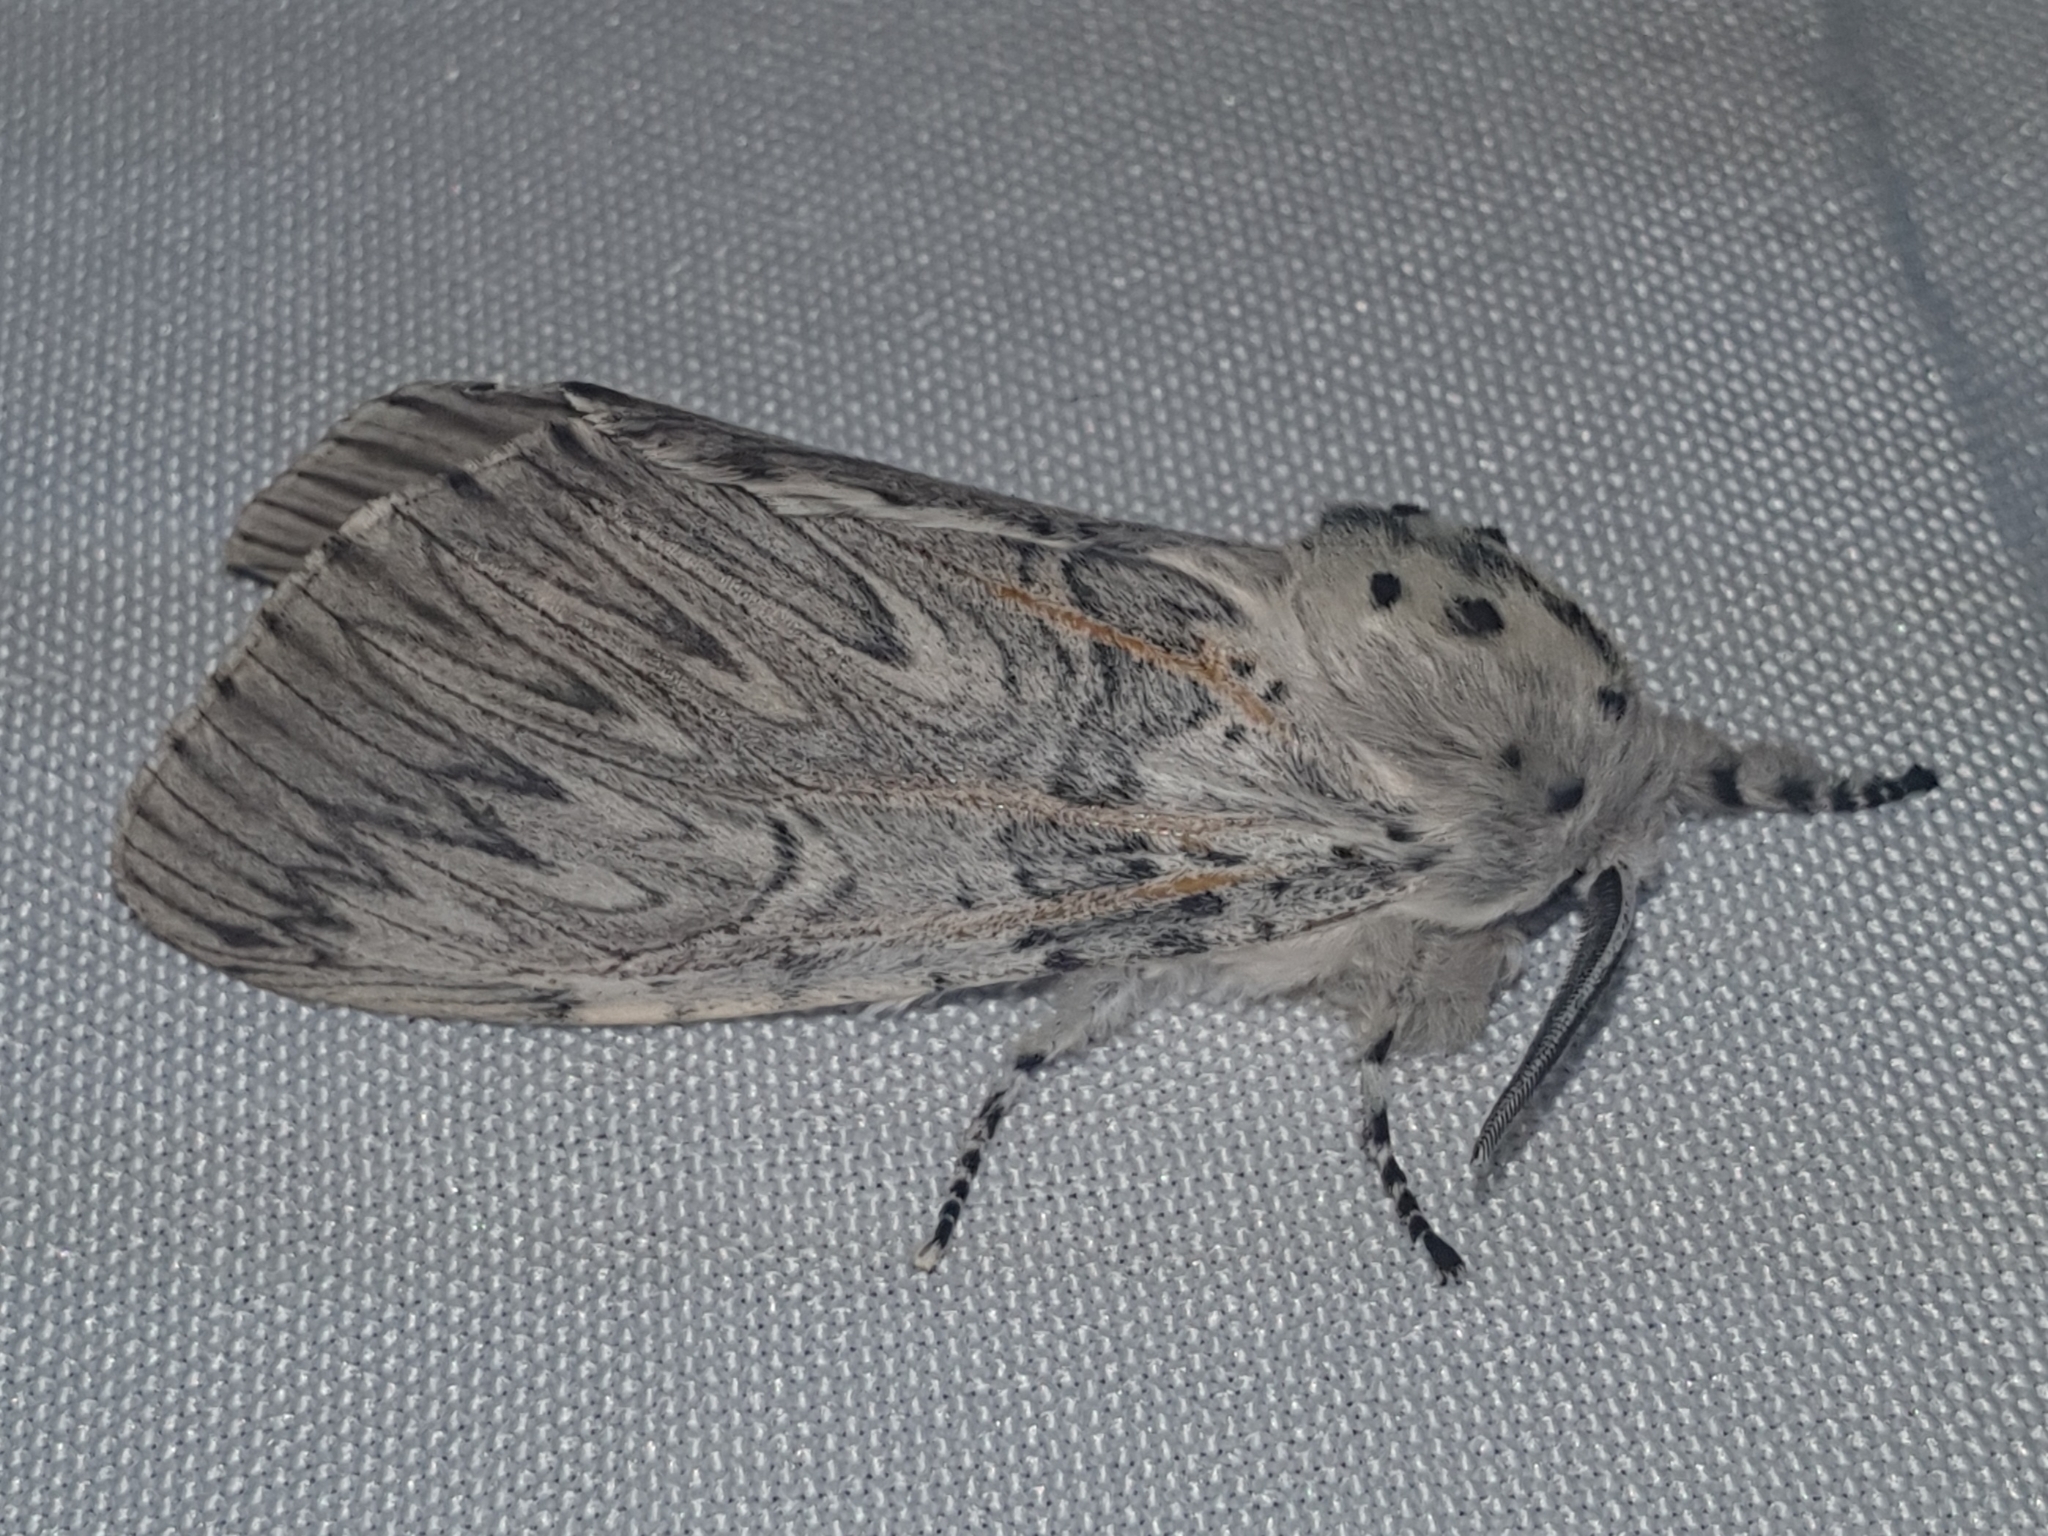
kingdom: Animalia
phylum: Arthropoda
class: Insecta
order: Lepidoptera
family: Notodontidae
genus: Cerura
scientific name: Cerura iberica
